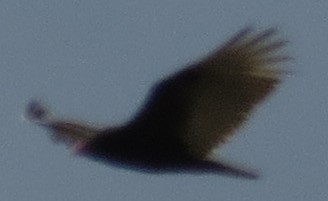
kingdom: Animalia
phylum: Chordata
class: Aves
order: Accipitriformes
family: Cathartidae
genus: Cathartes
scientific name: Cathartes aura
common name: Turkey vulture
